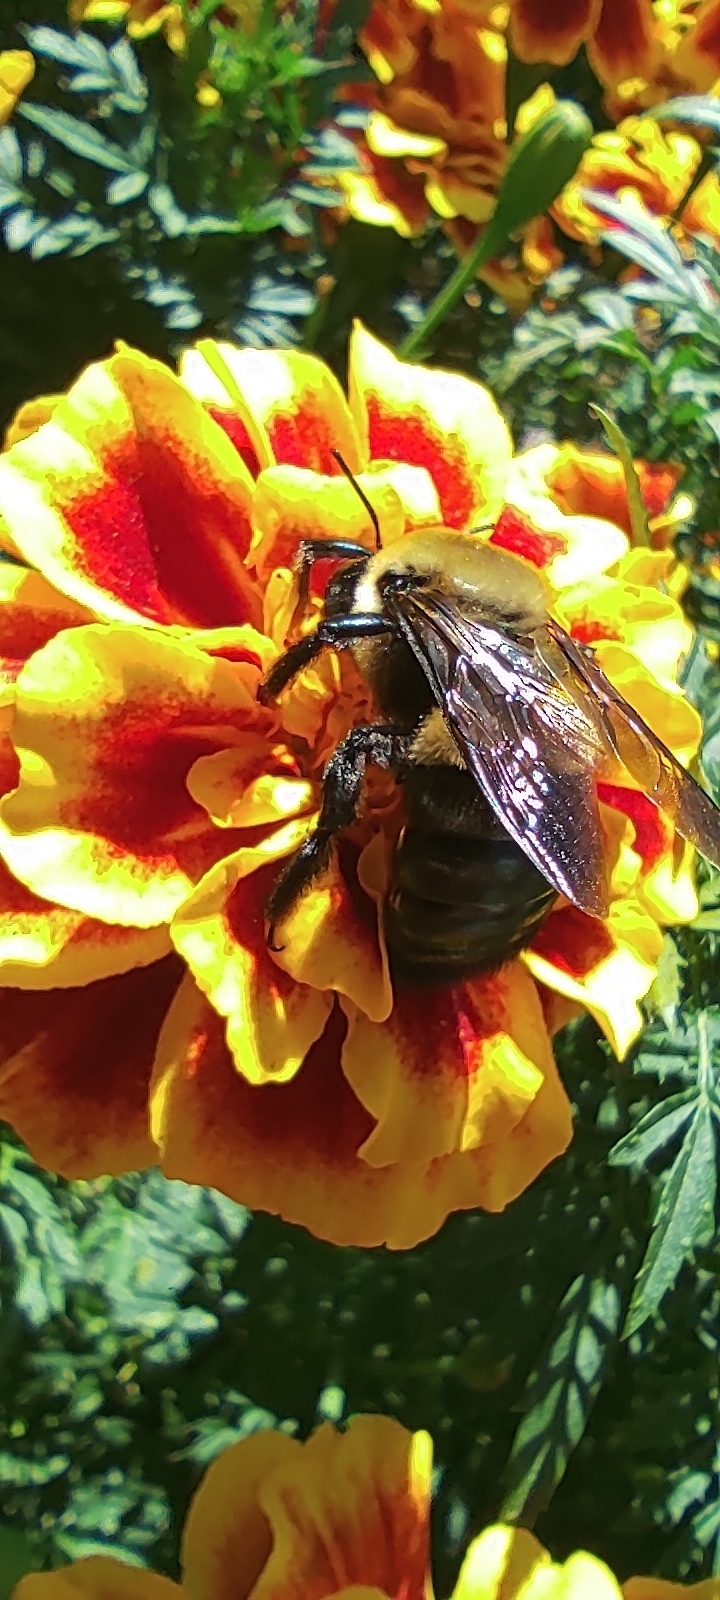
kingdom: Animalia
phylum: Arthropoda
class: Insecta
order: Hymenoptera
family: Apidae
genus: Xylocopa
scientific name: Xylocopa virginica
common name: Carpenter bee
